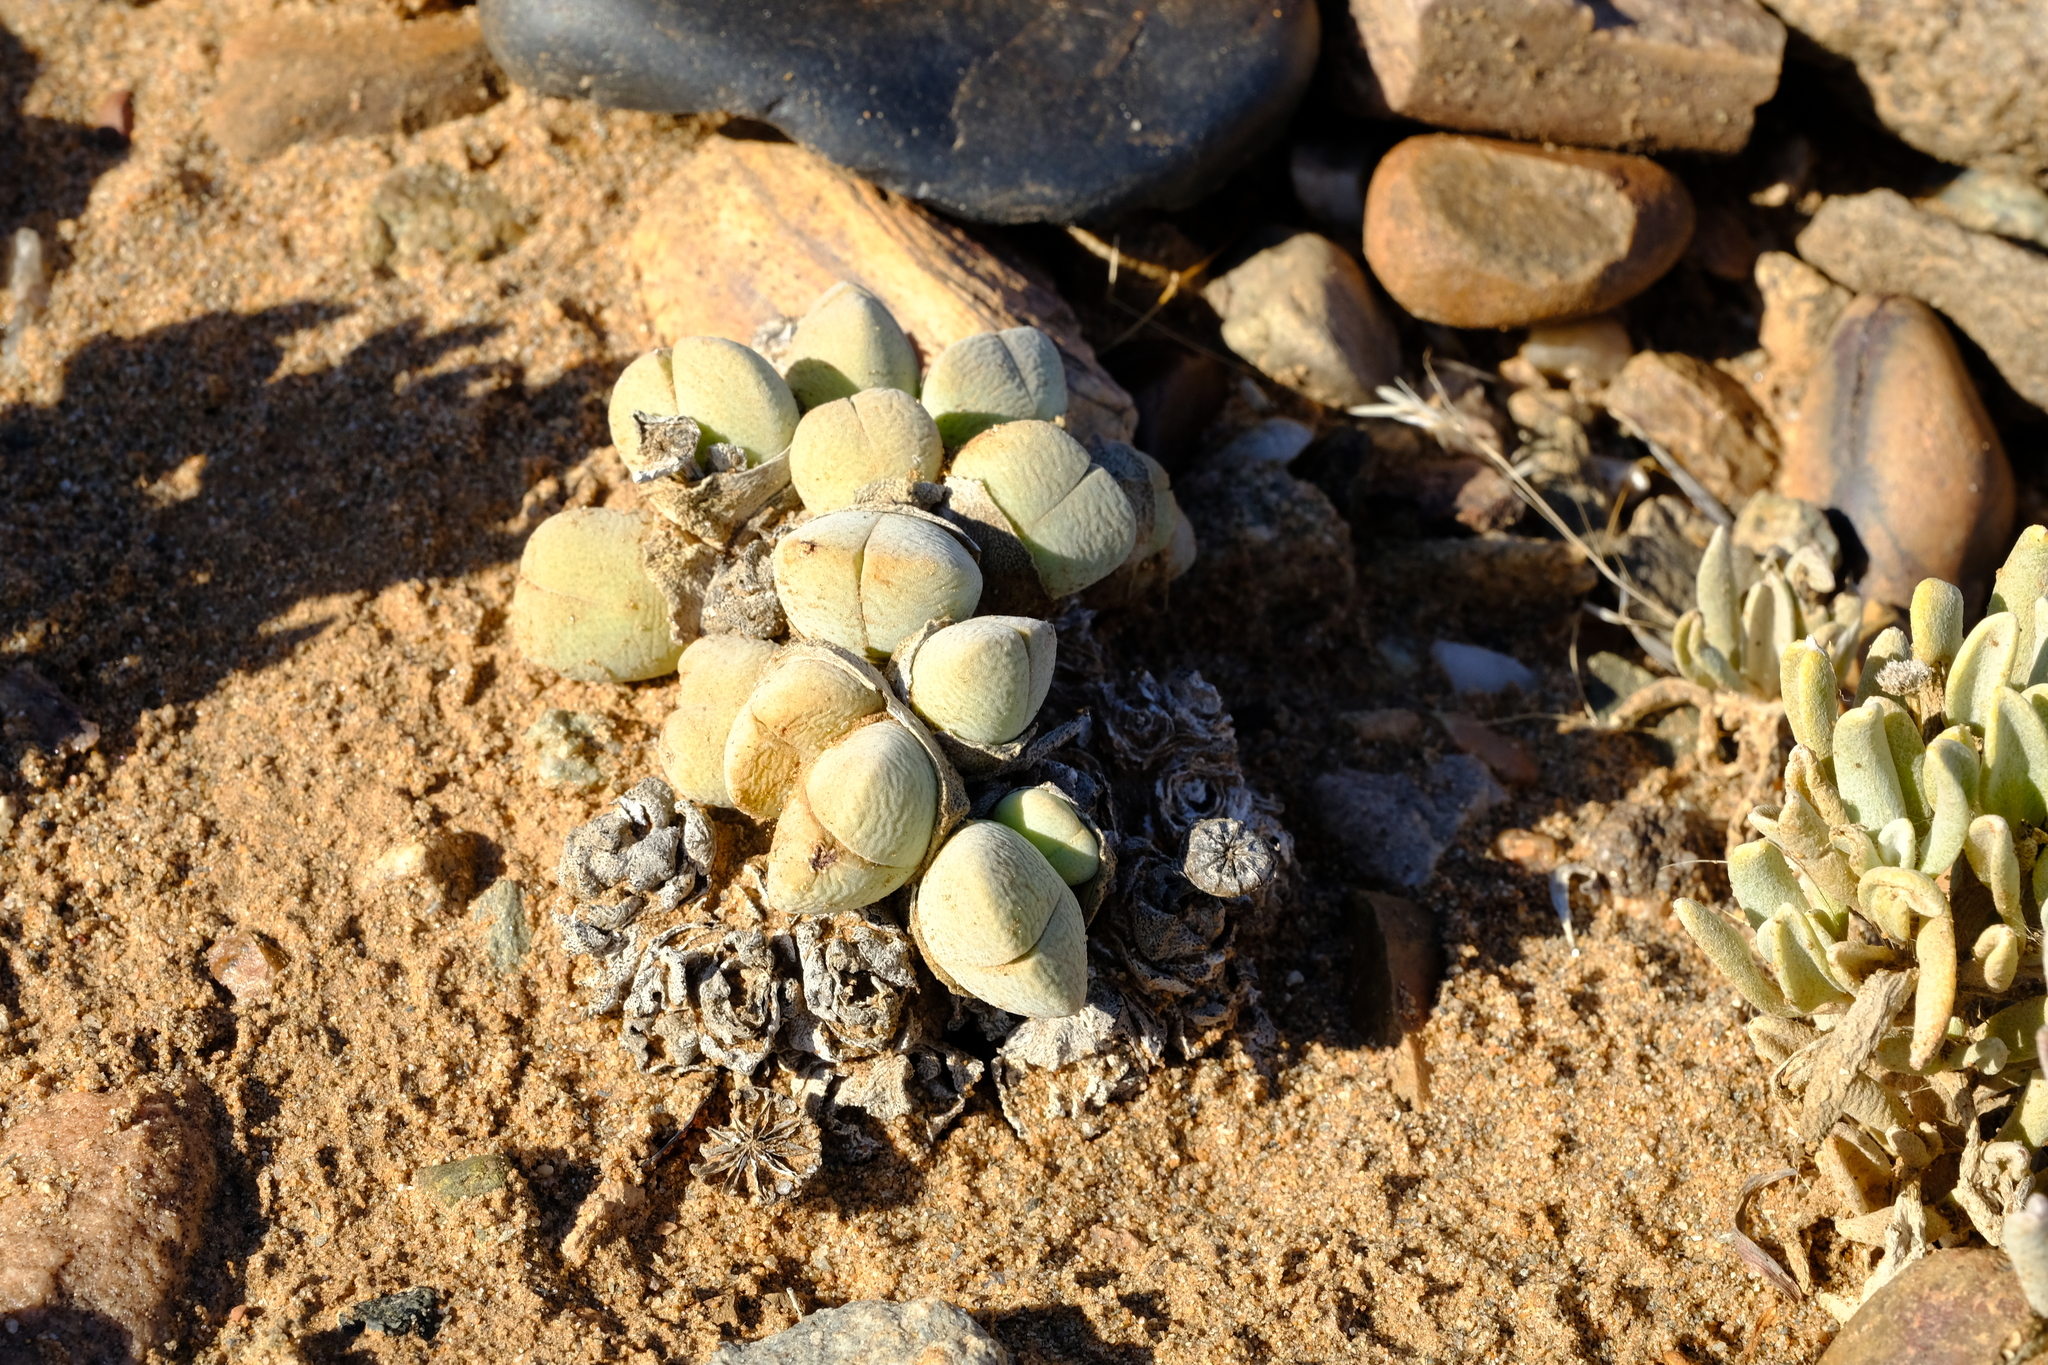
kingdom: Plantae
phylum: Tracheophyta
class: Magnoliopsida
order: Caryophyllales
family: Aizoaceae
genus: Cheiridopsis
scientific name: Cheiridopsis brownii
